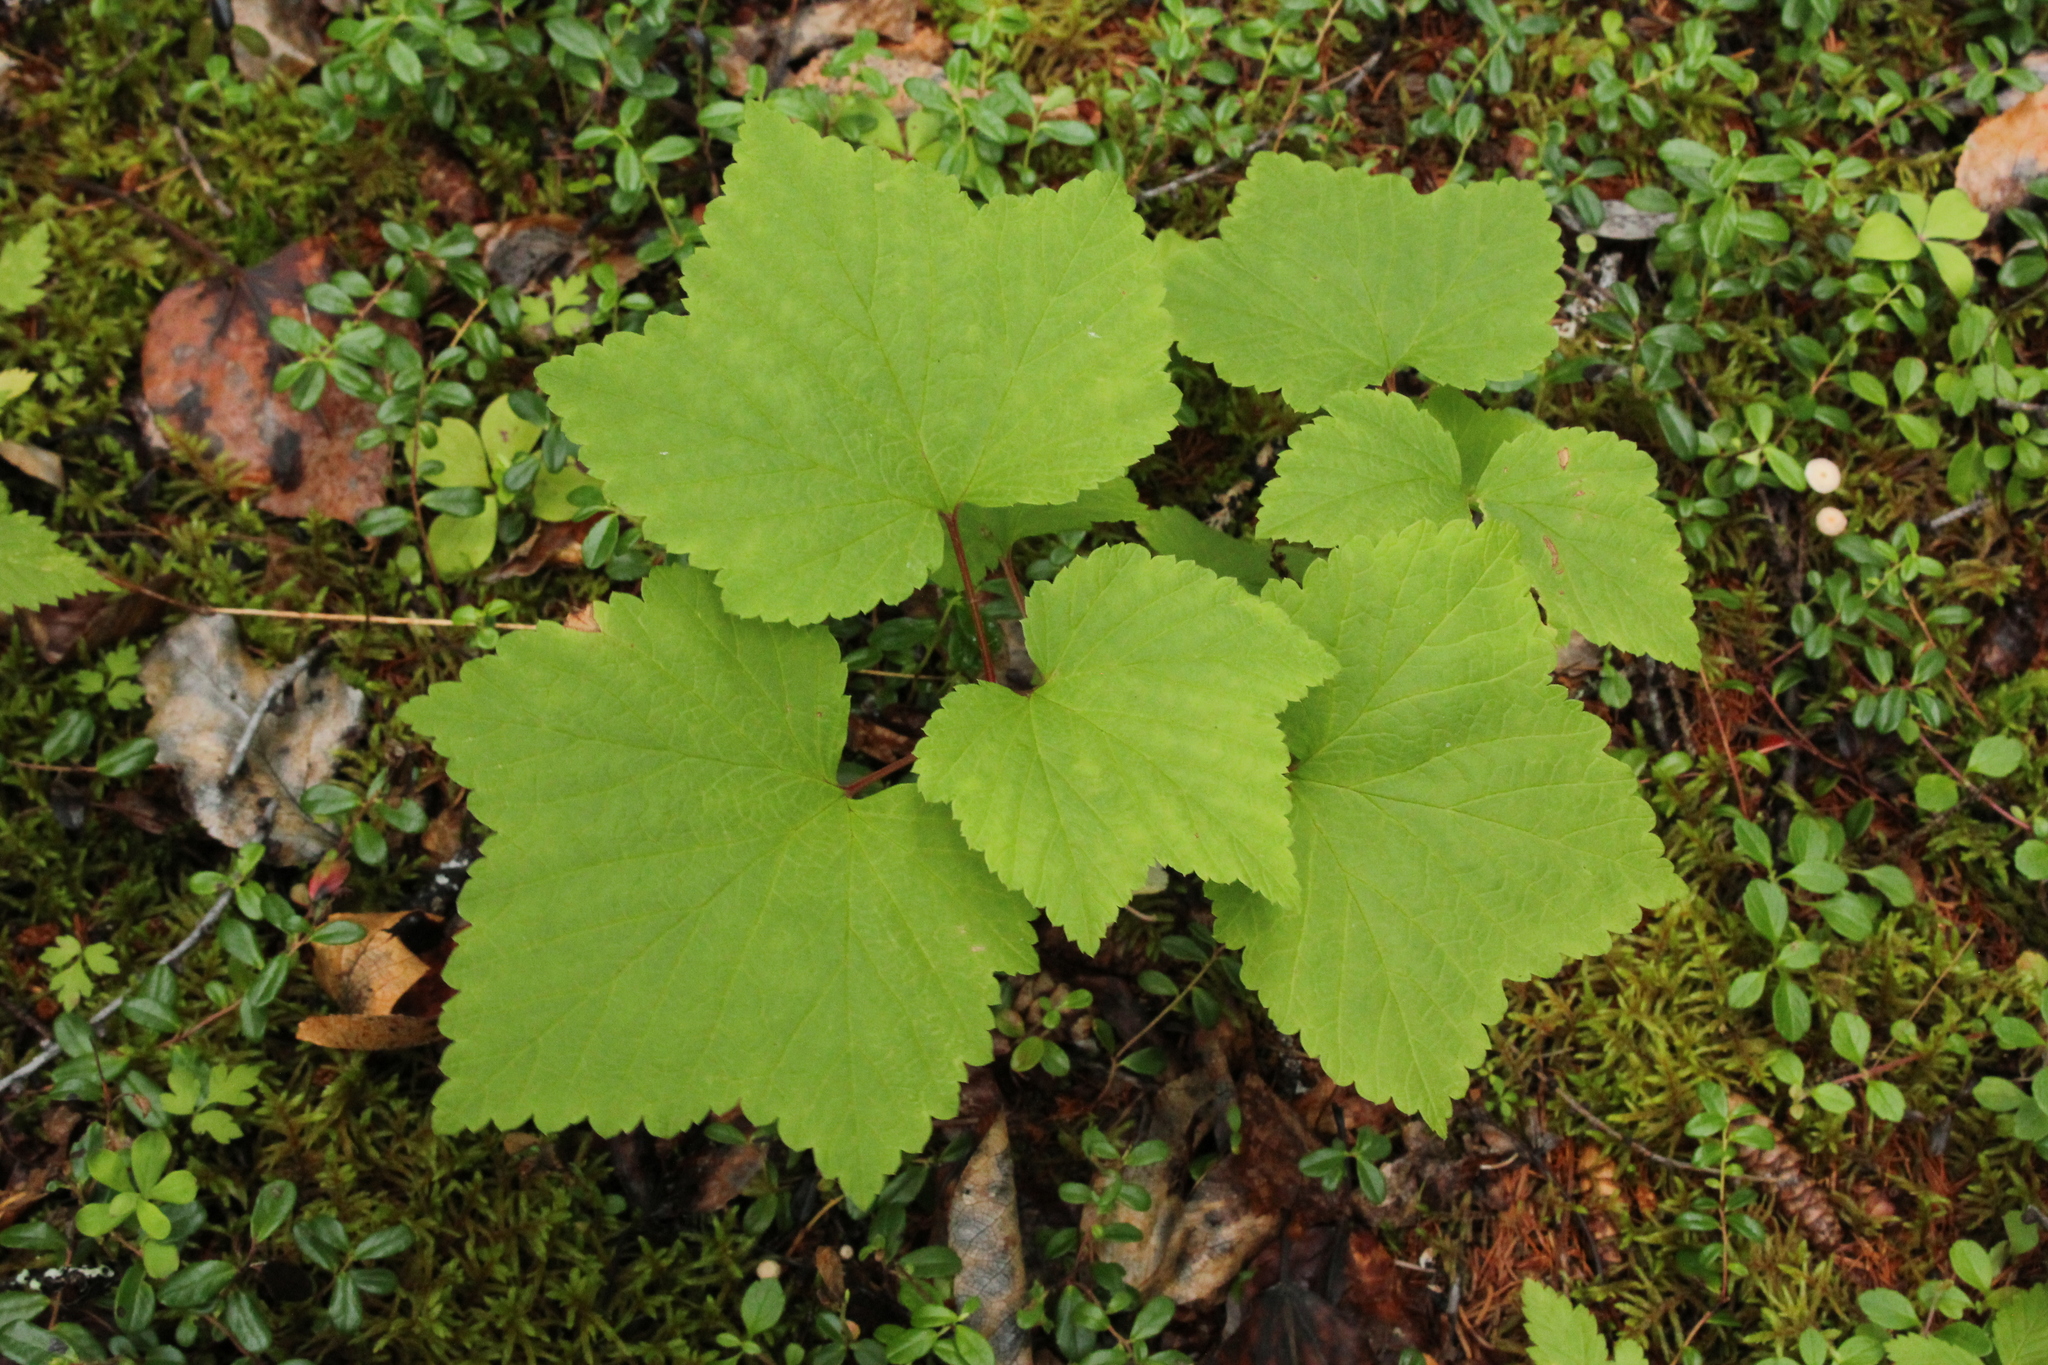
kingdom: Plantae
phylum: Tracheophyta
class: Magnoliopsida
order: Saxifragales
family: Grossulariaceae
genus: Ribes
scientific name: Ribes triste
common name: Swamp red currant
